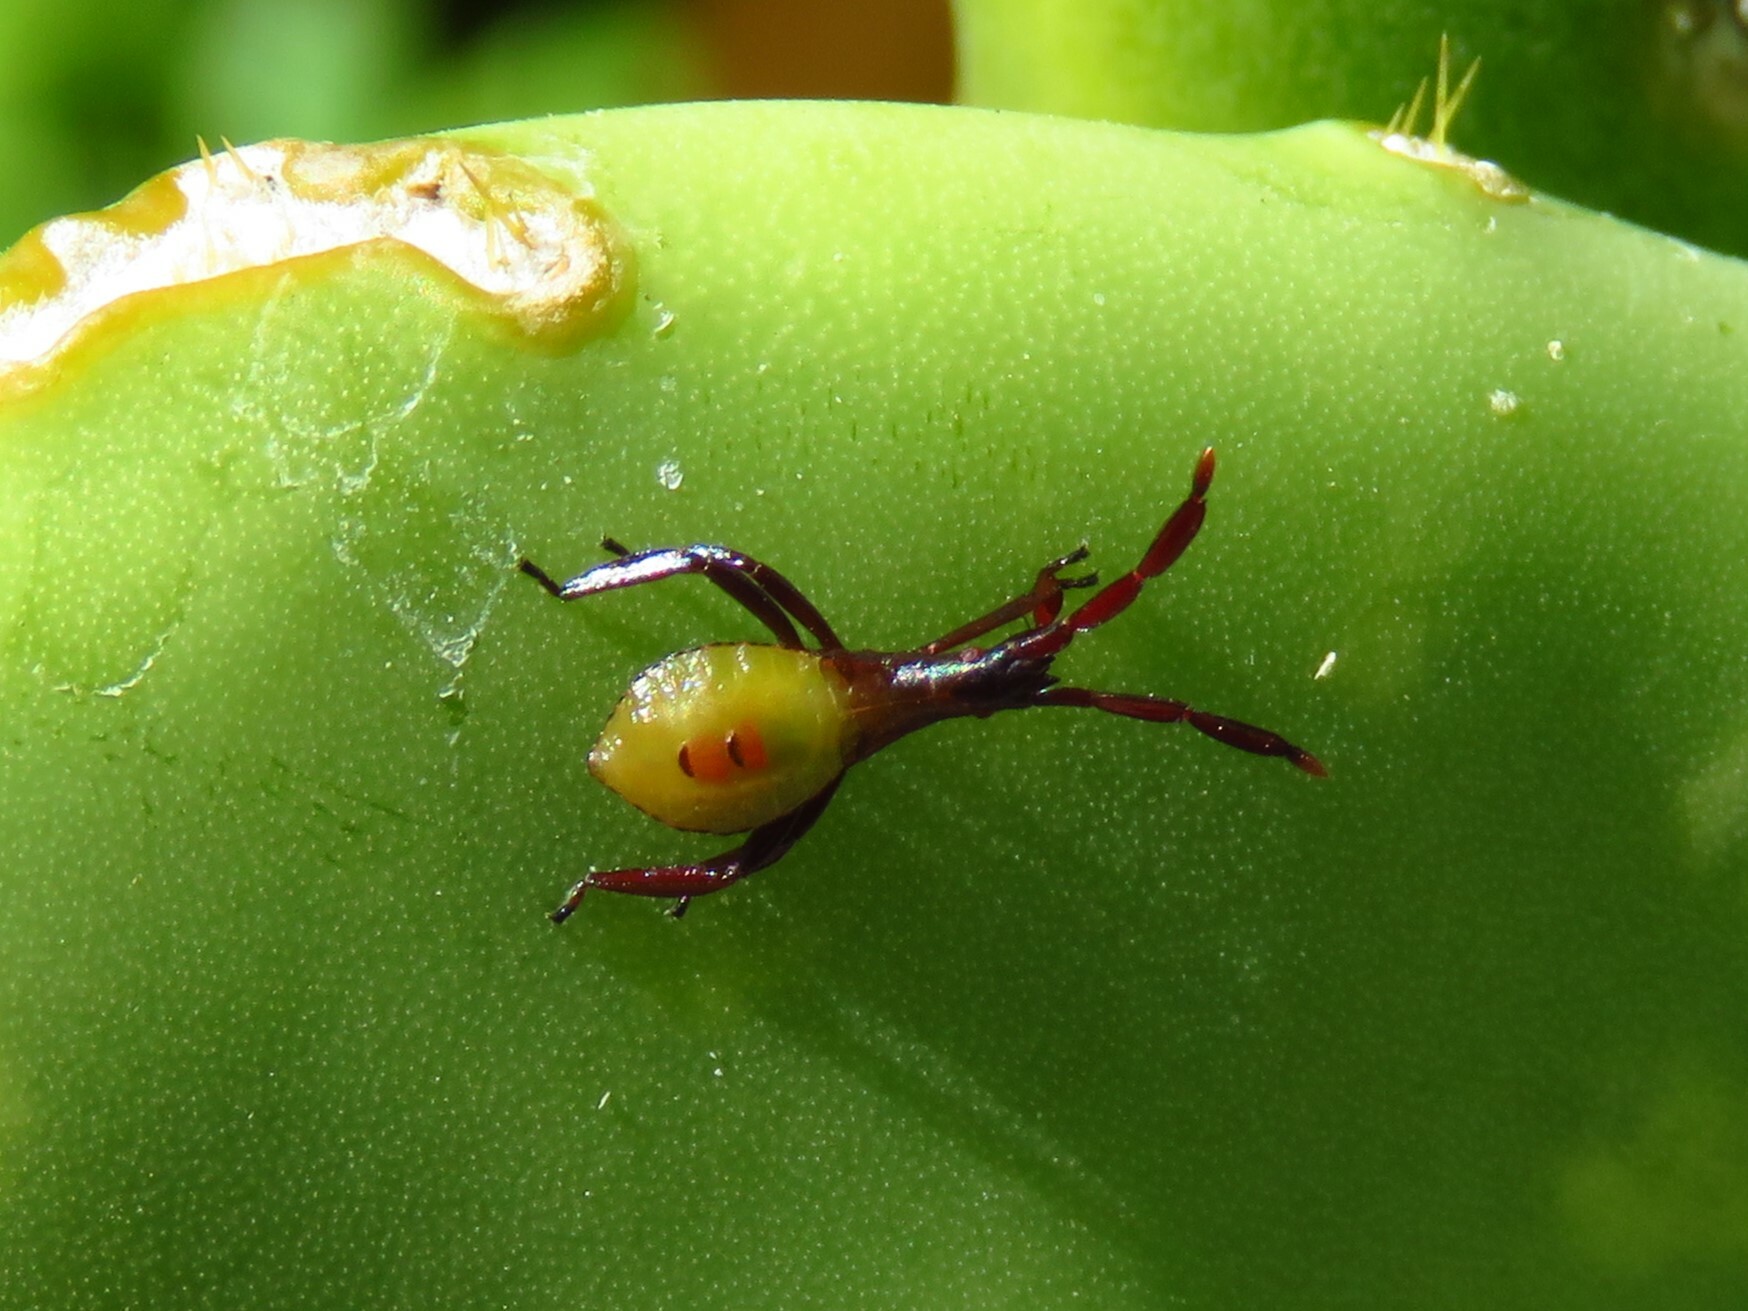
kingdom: Animalia
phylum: Arthropoda
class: Insecta
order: Hemiptera
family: Coreidae
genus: Chelinidea
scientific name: Chelinidea vittiger
